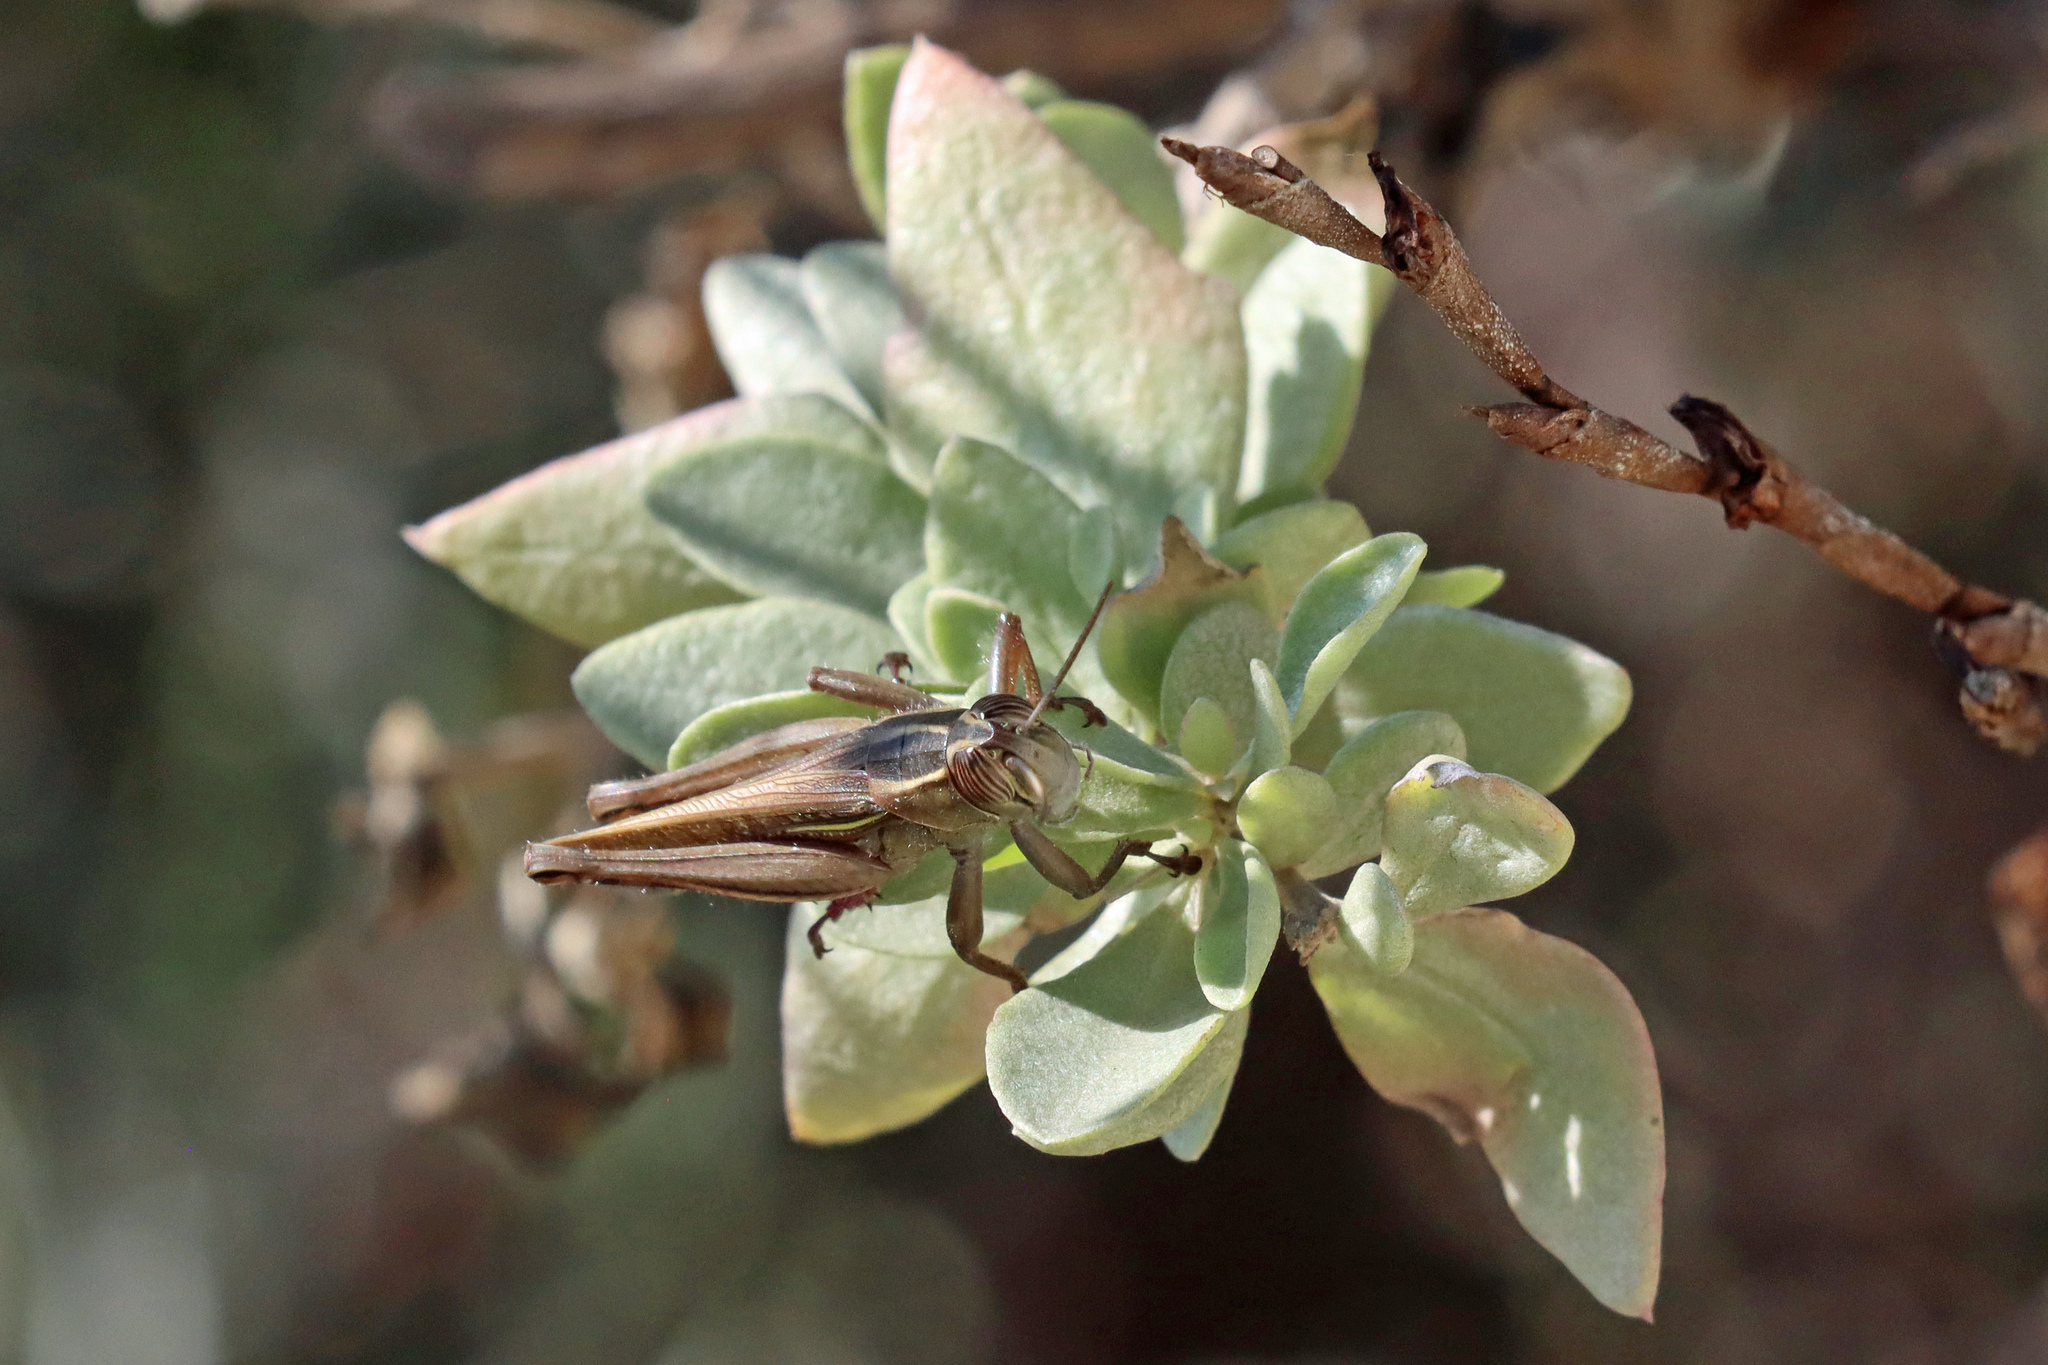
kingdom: Animalia
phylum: Arthropoda
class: Insecta
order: Orthoptera
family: Acrididae
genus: Eyprepocnemis
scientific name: Eyprepocnemis plorans
